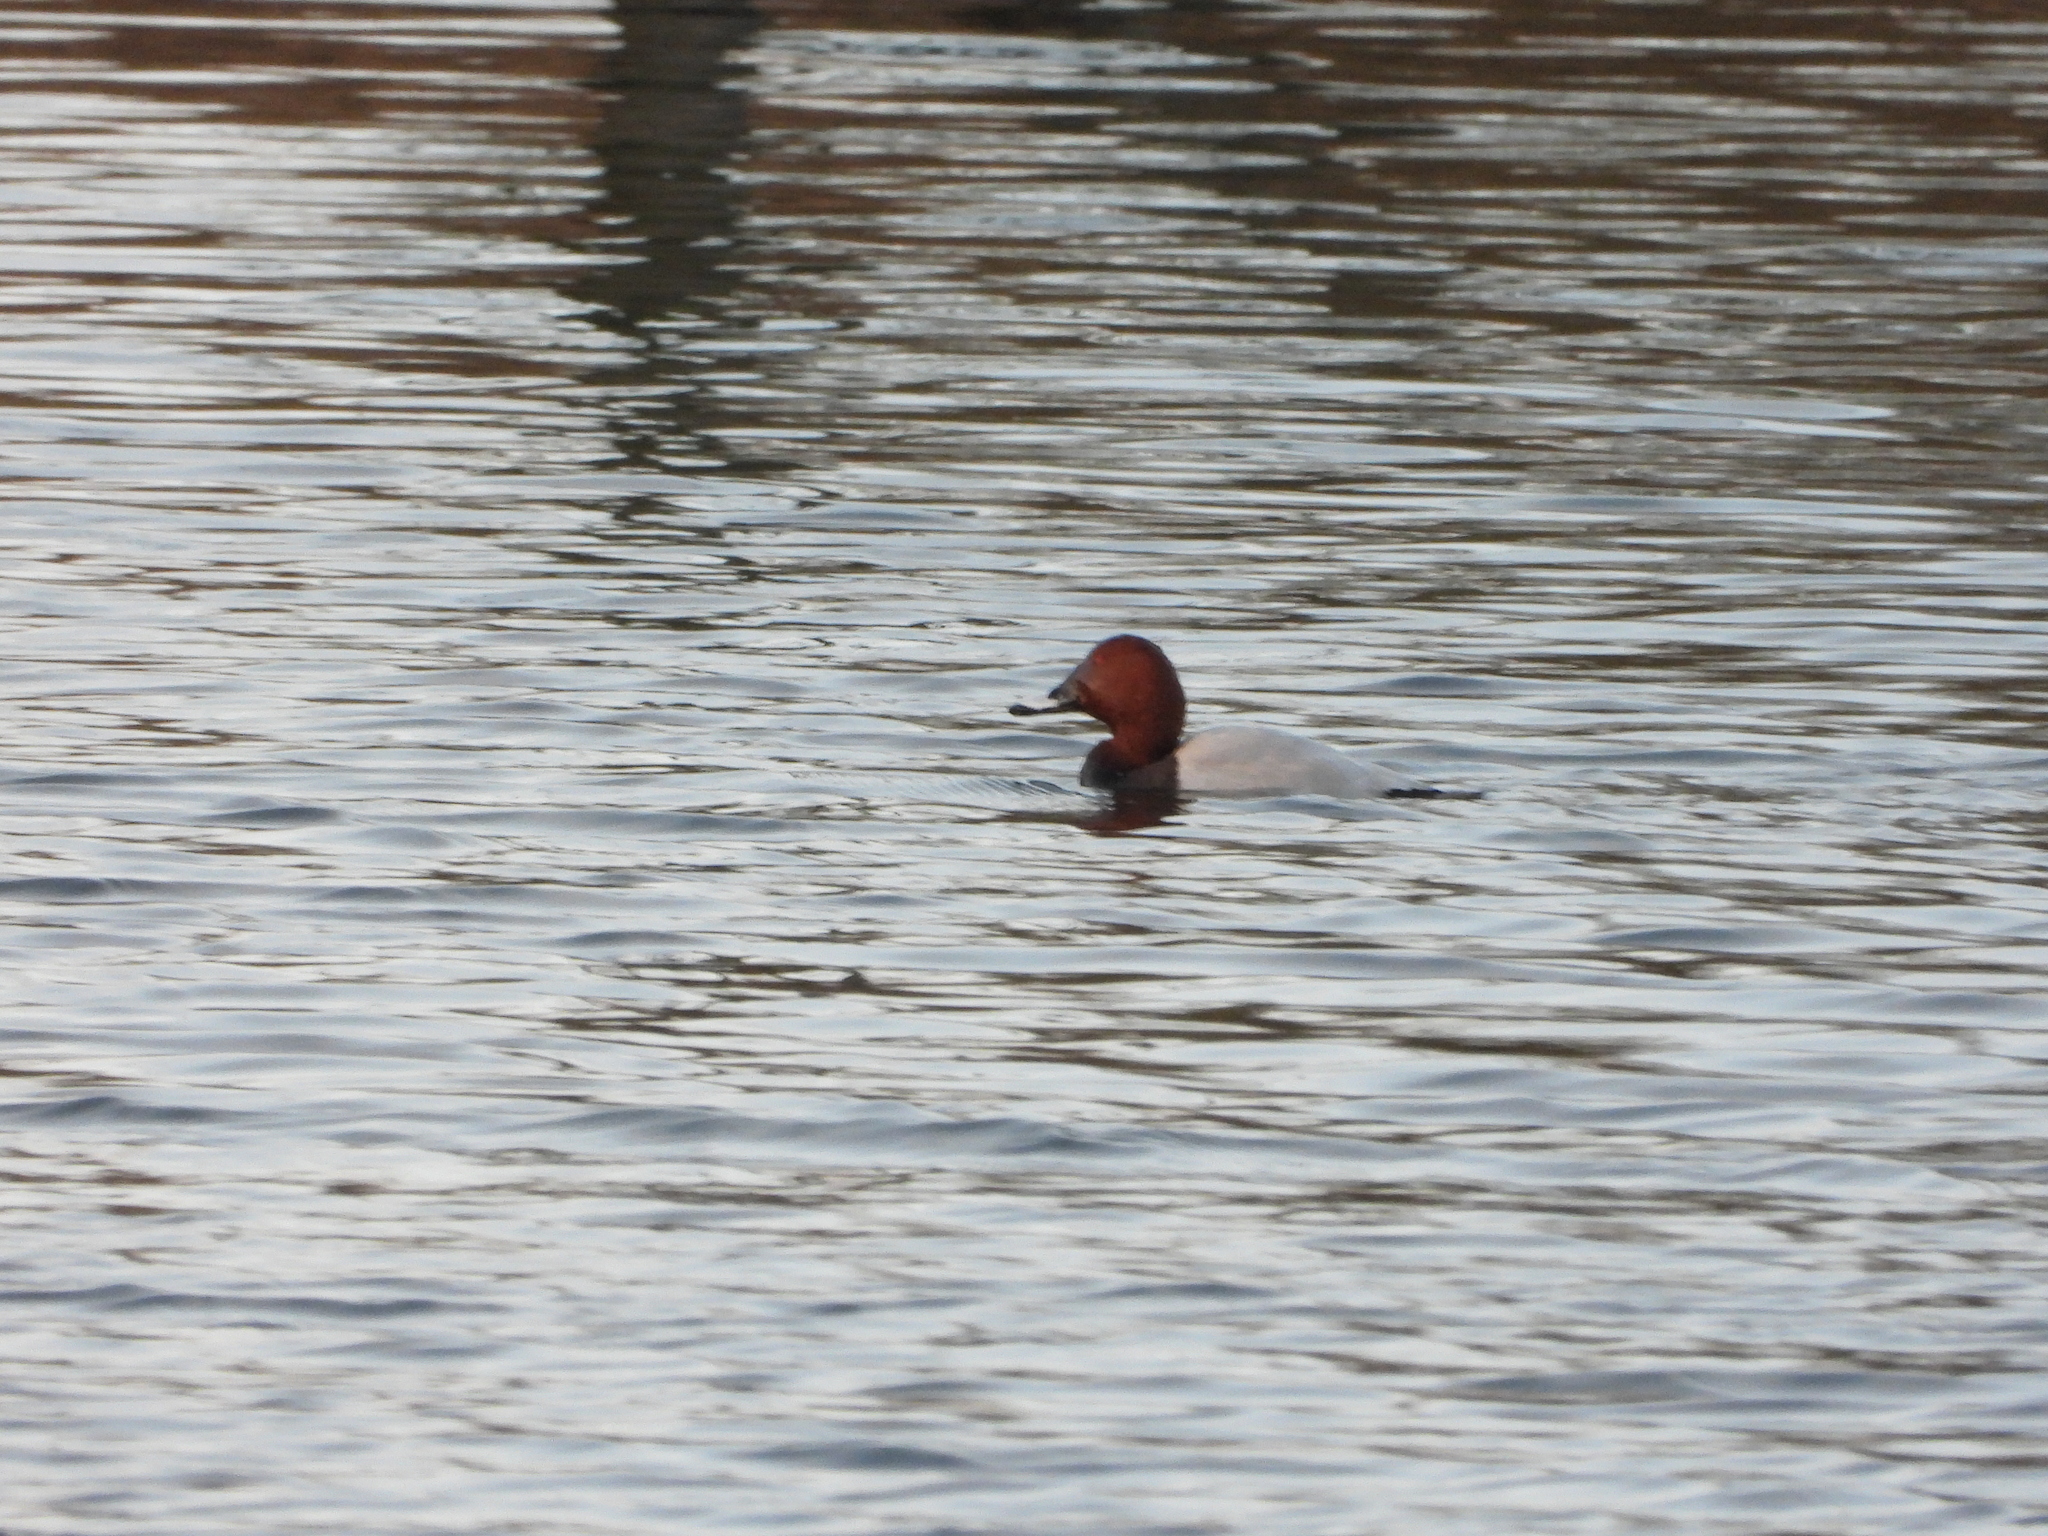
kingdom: Animalia
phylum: Chordata
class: Aves
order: Anseriformes
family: Anatidae
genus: Aythya
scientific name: Aythya ferina
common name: Common pochard
